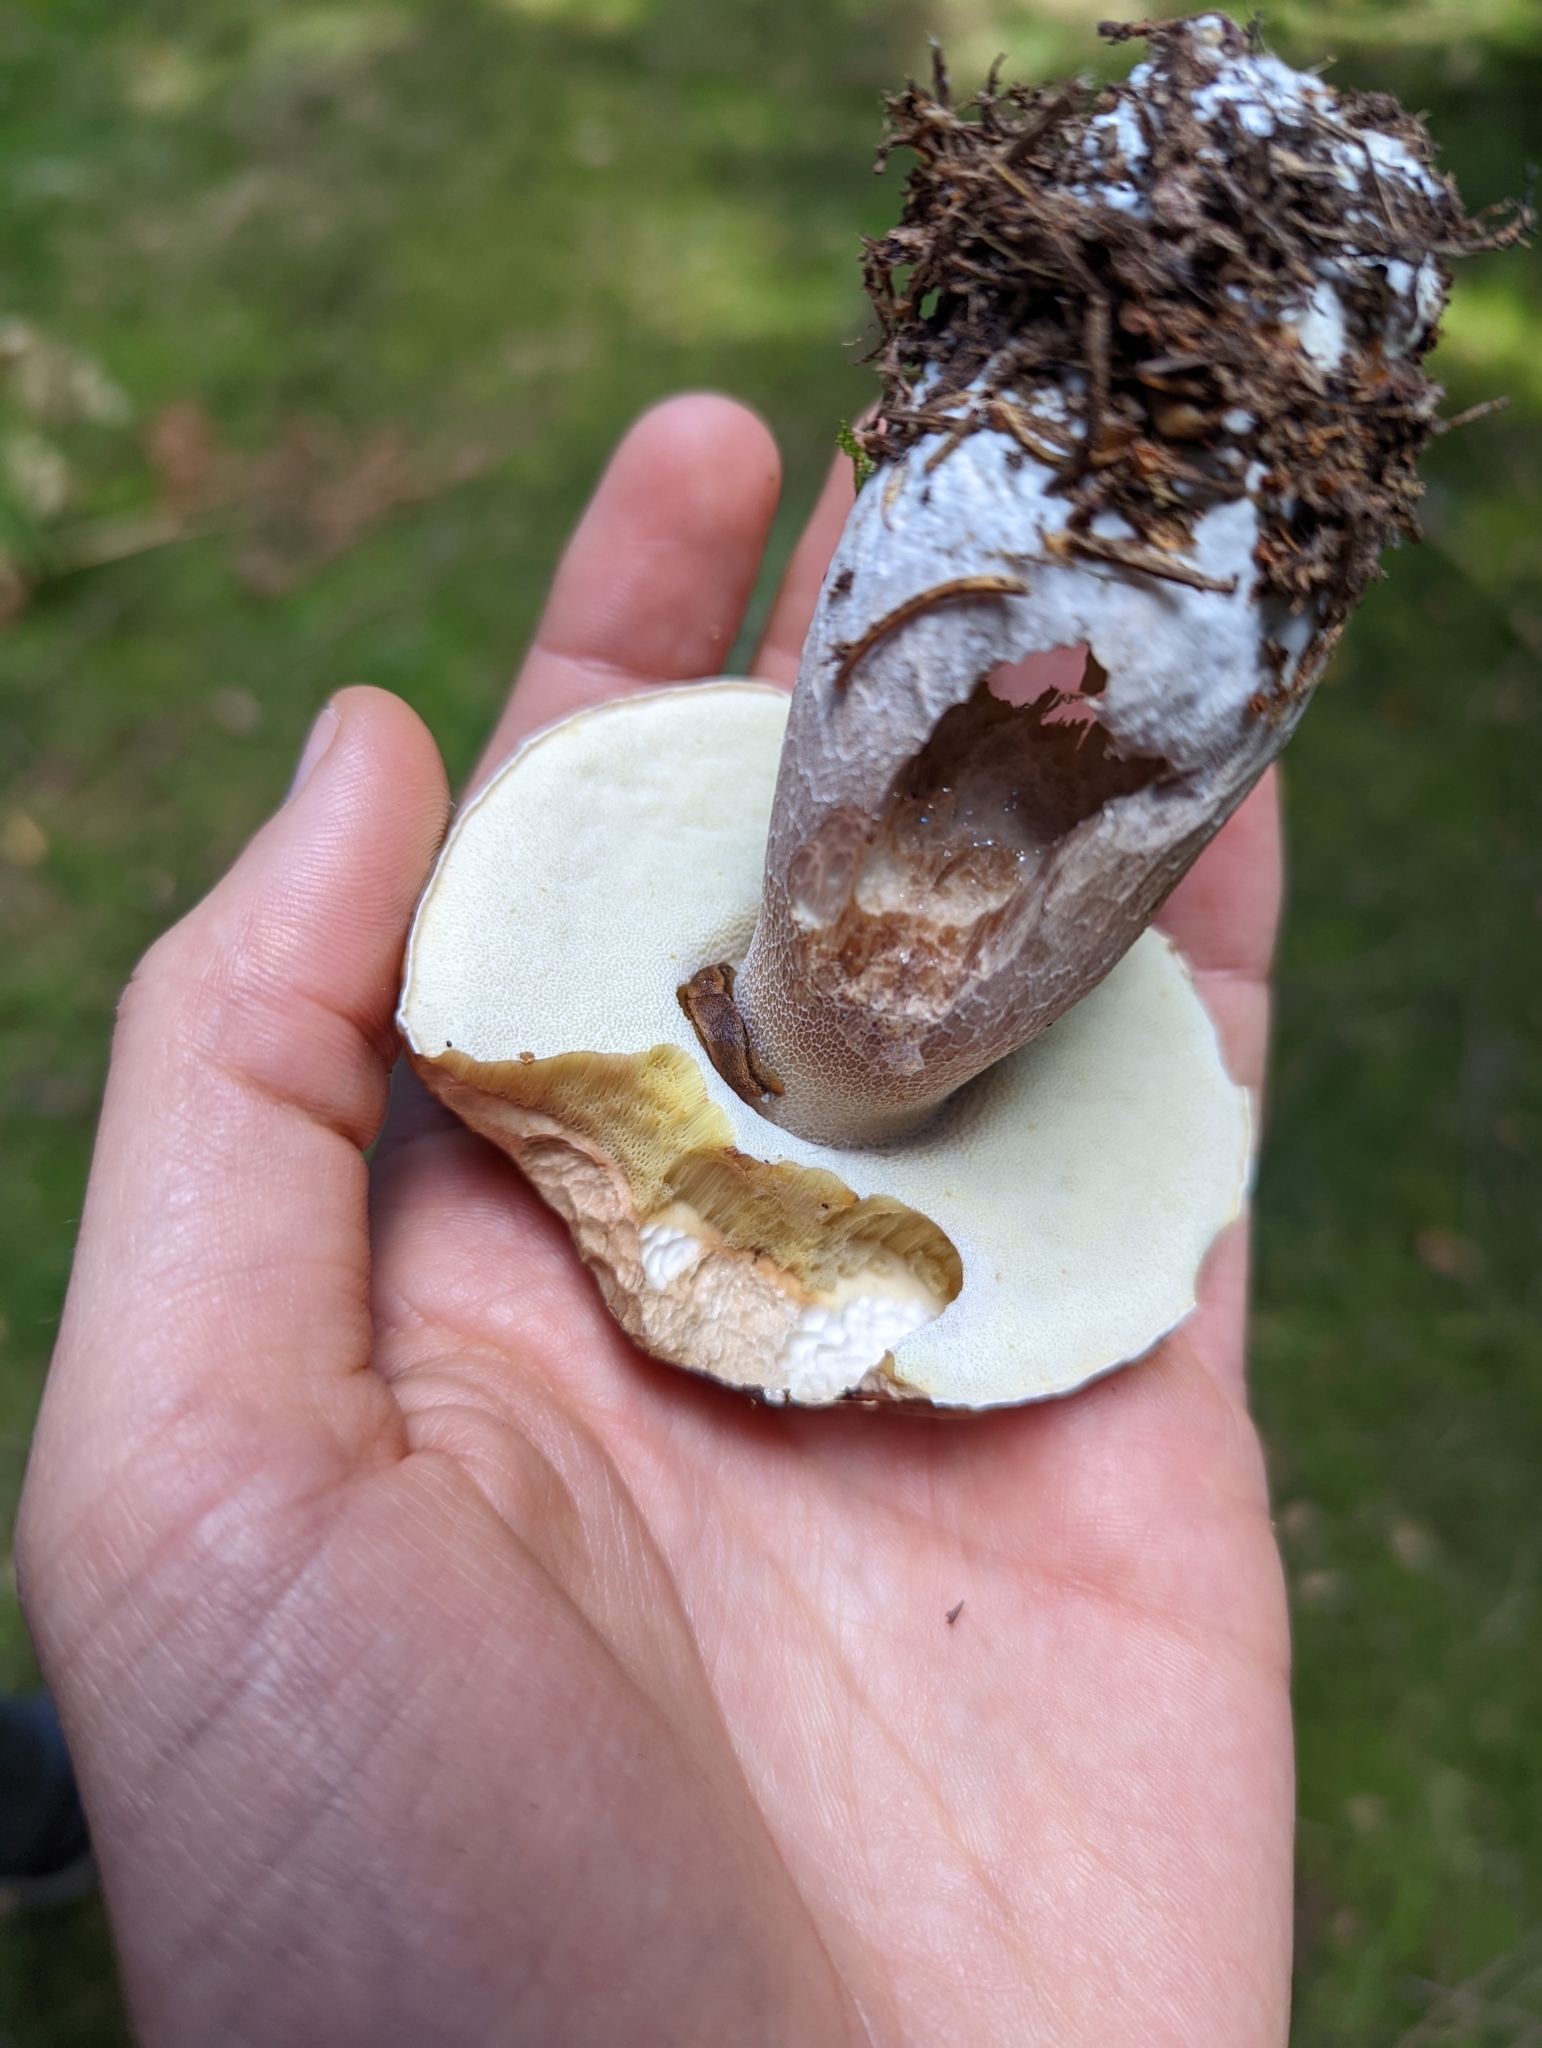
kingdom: Fungi
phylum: Basidiomycota
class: Agaricomycetes
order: Boletales
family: Boletaceae
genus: Boletus
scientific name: Boletus edulis
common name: Cep
